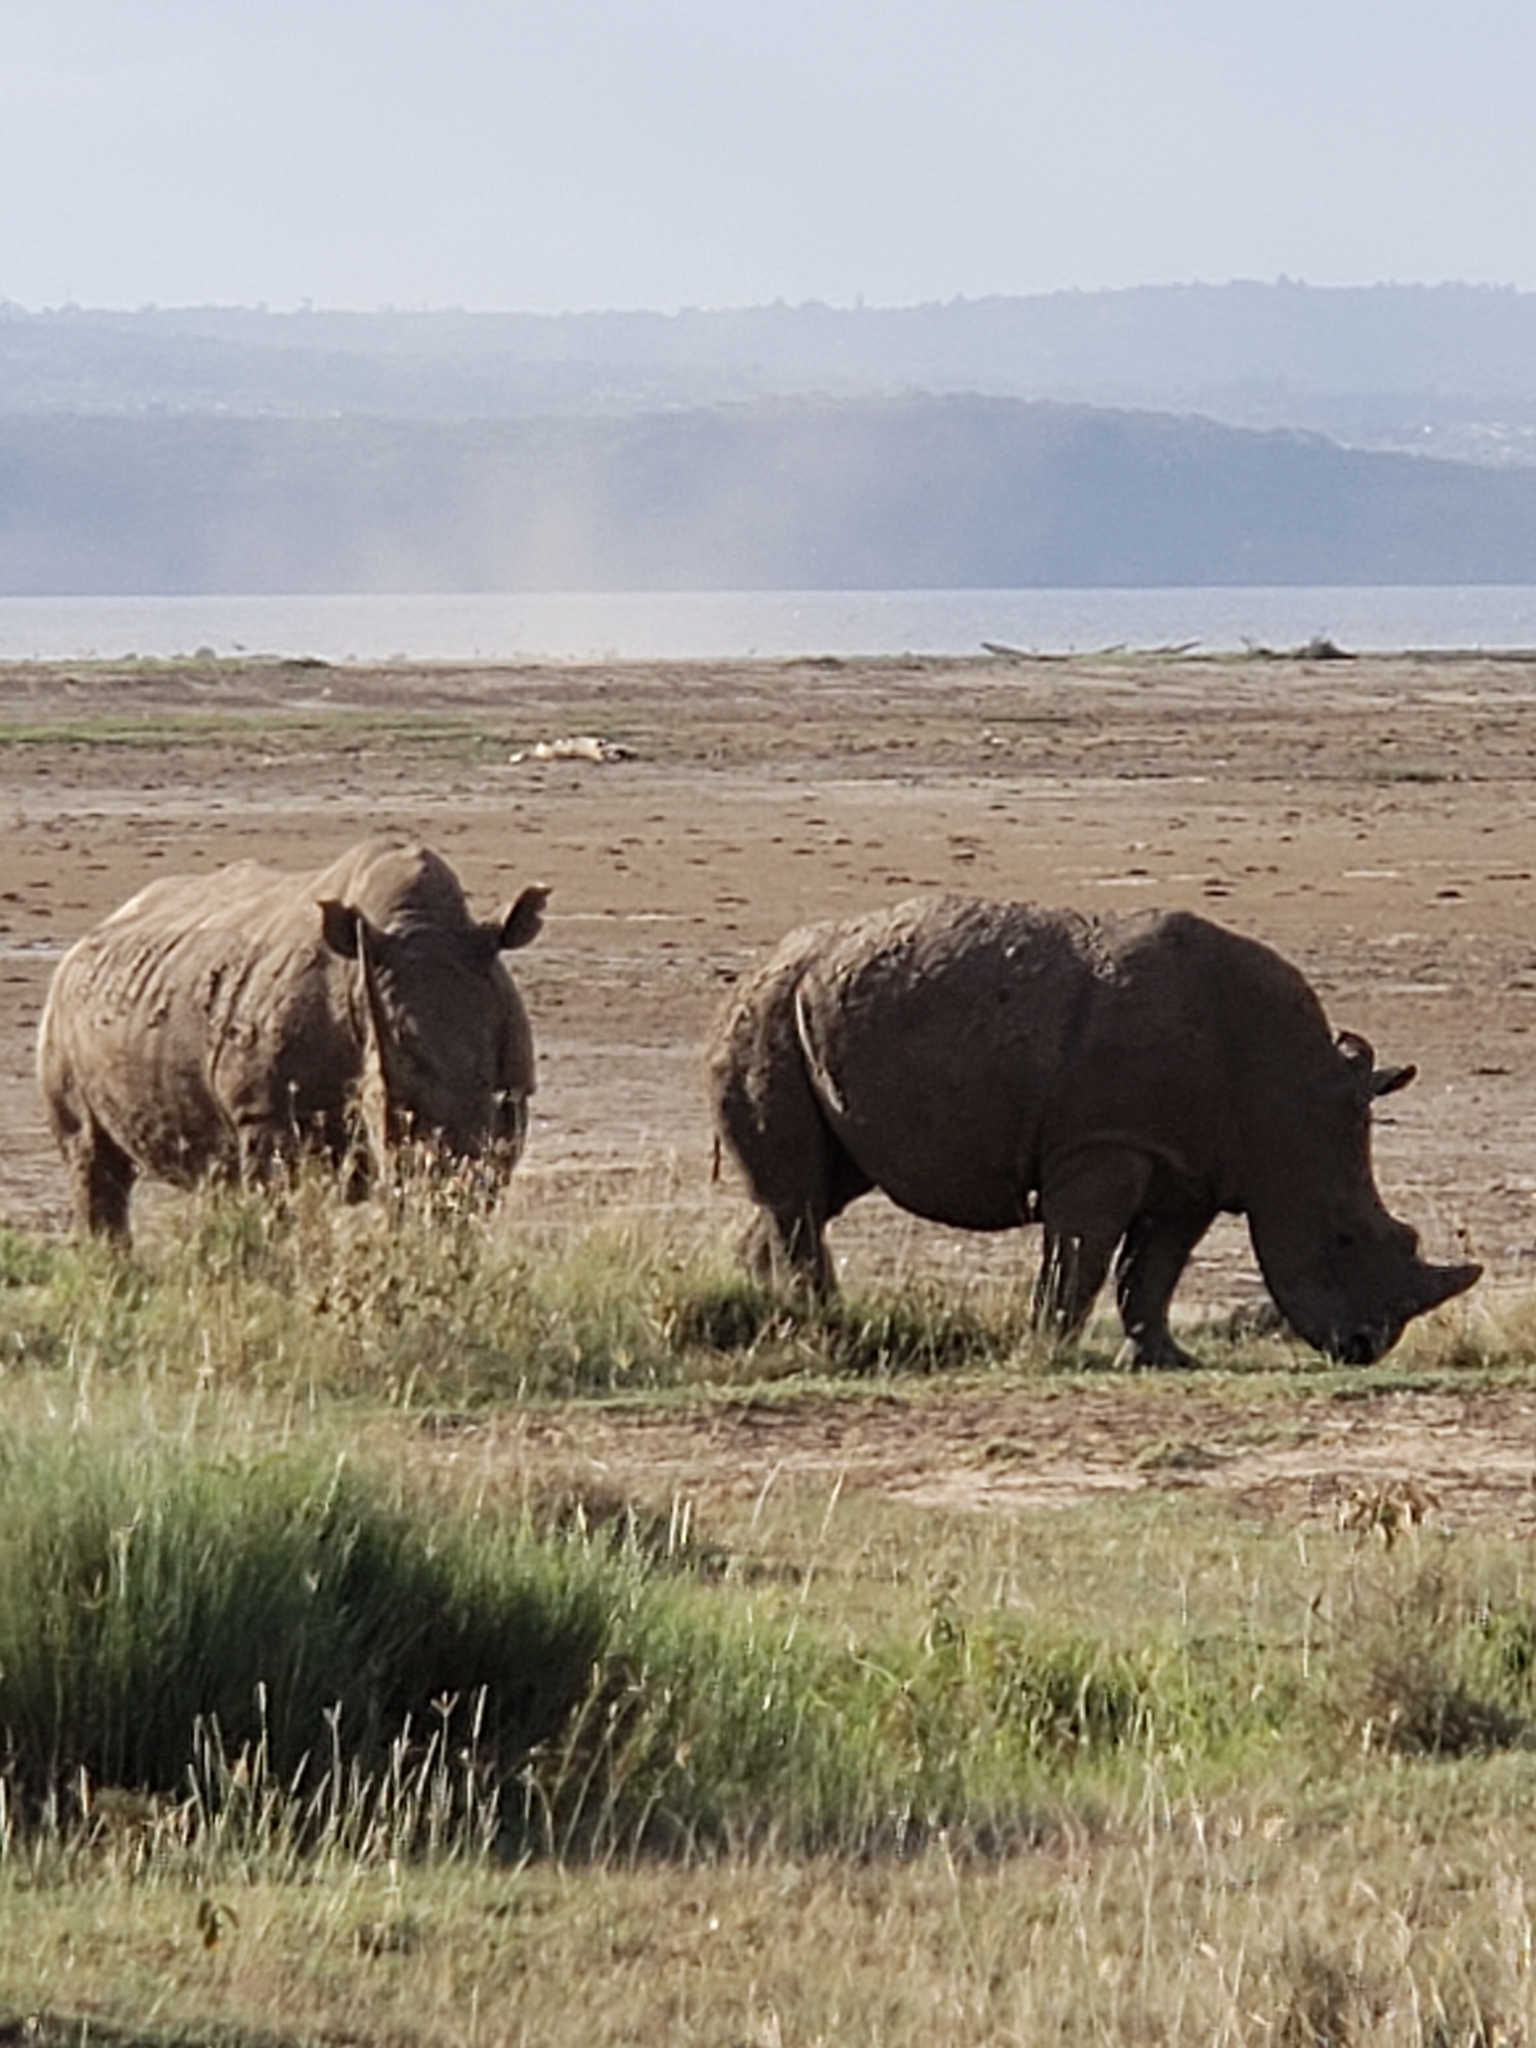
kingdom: Animalia
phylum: Chordata
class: Mammalia
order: Perissodactyla
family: Rhinocerotidae
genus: Ceratotherium
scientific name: Ceratotherium simum
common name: White rhinoceros
